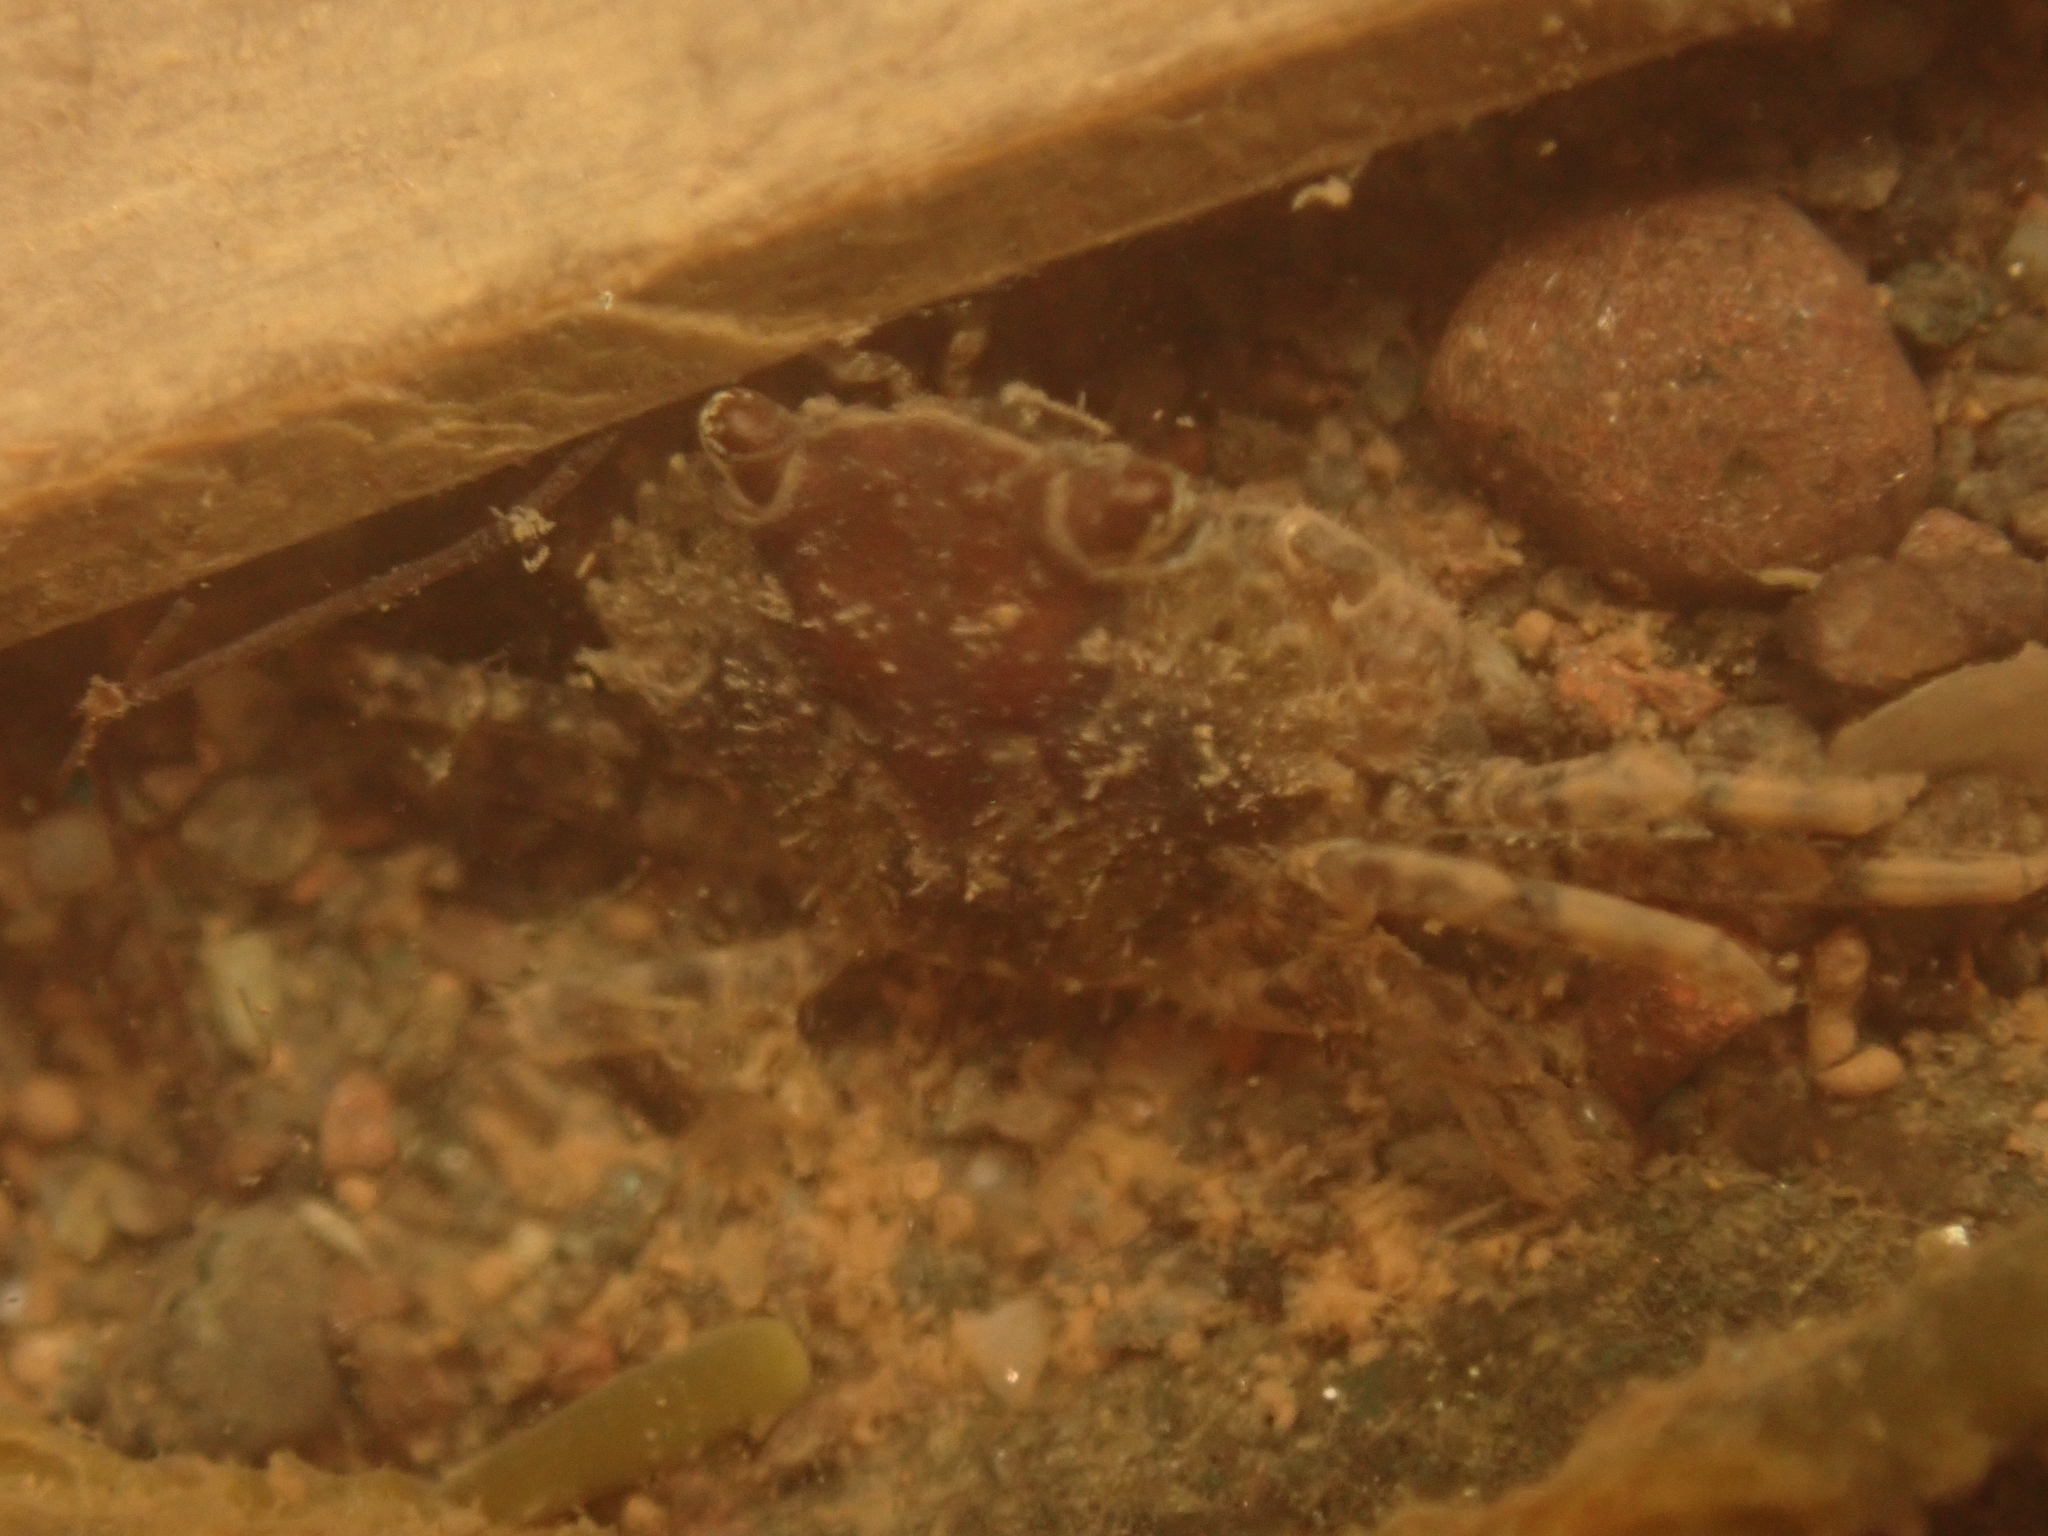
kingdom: Animalia
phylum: Arthropoda
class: Malacostraca
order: Decapoda
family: Carcinidae
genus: Carcinus
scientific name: Carcinus maenas
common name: European green crab
